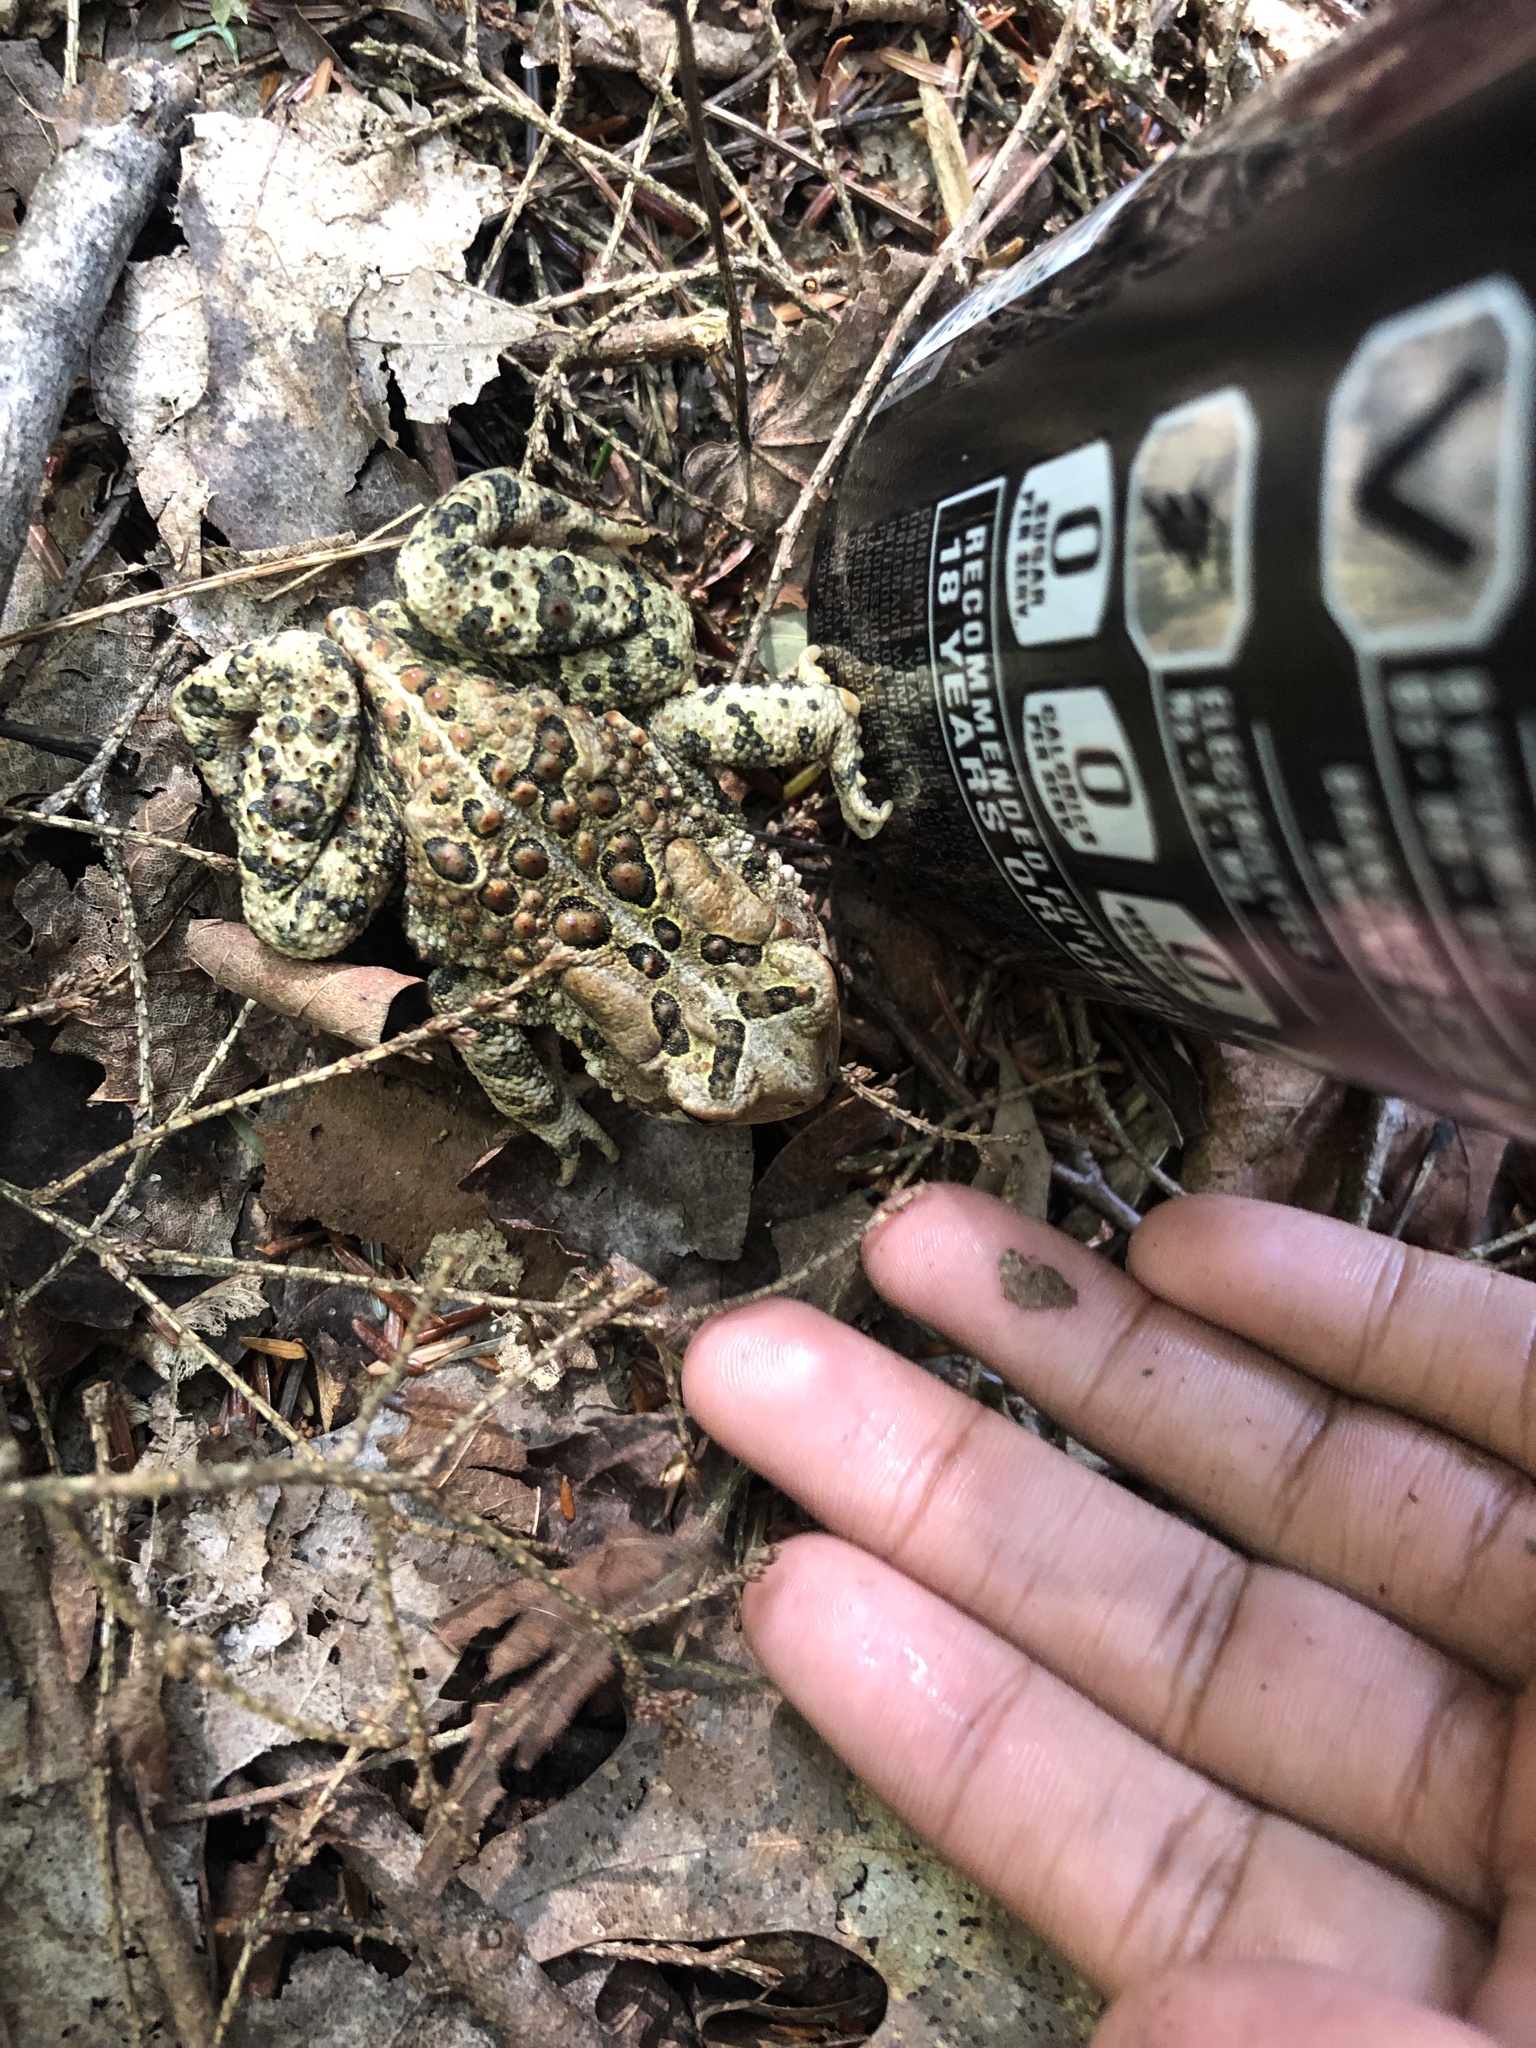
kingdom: Animalia
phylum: Chordata
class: Amphibia
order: Anura
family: Bufonidae
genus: Anaxyrus
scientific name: Anaxyrus americanus
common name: American toad
